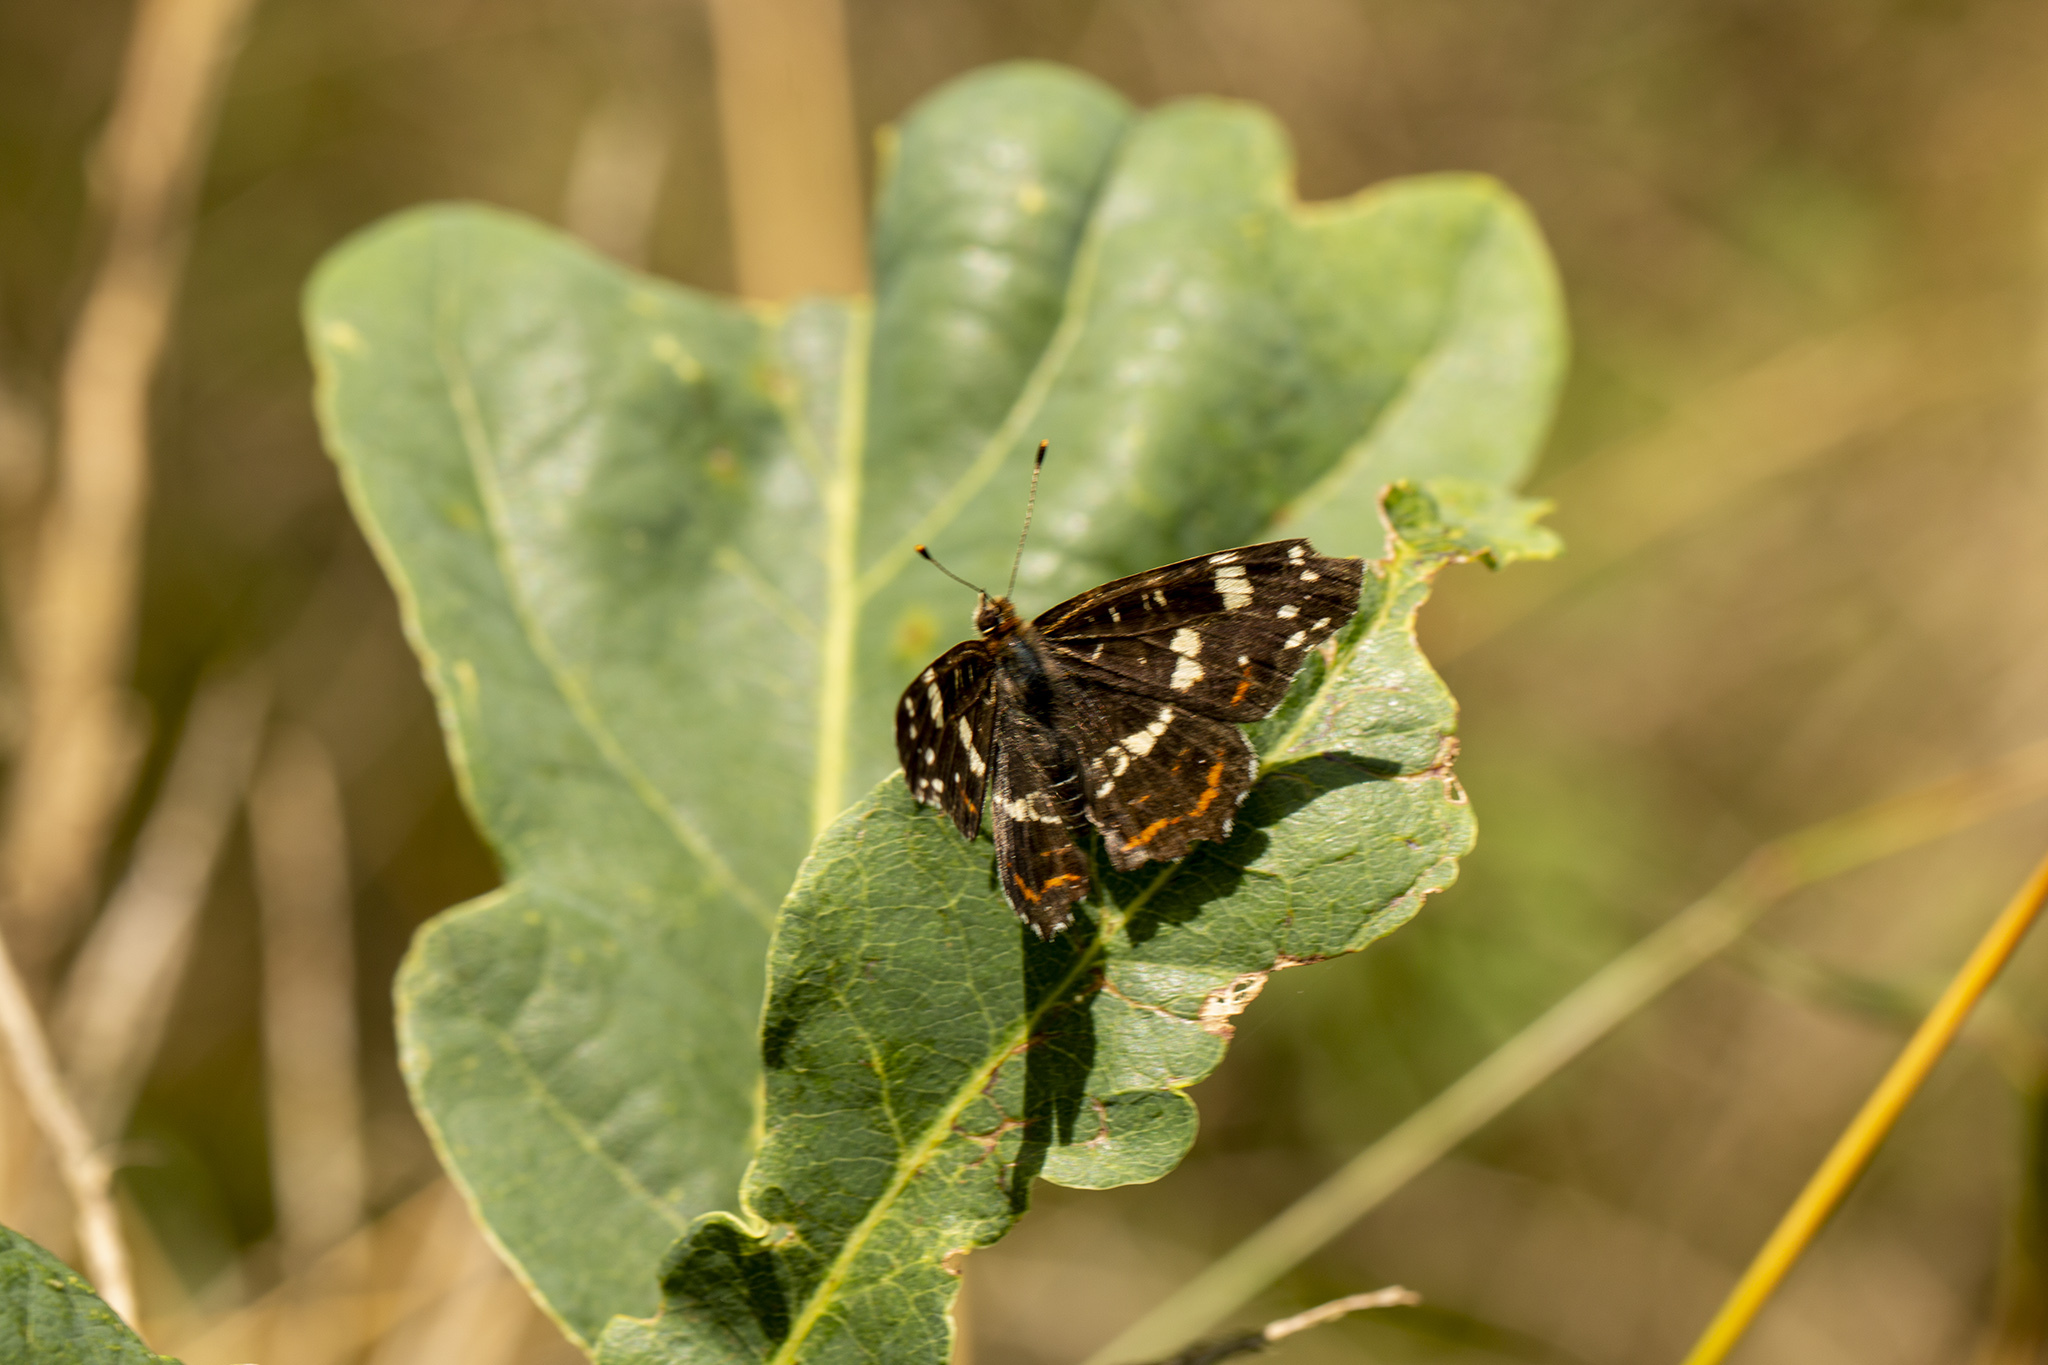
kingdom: Animalia
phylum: Arthropoda
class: Insecta
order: Lepidoptera
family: Nymphalidae
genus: Araschnia
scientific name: Araschnia levana
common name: Map butterfly
